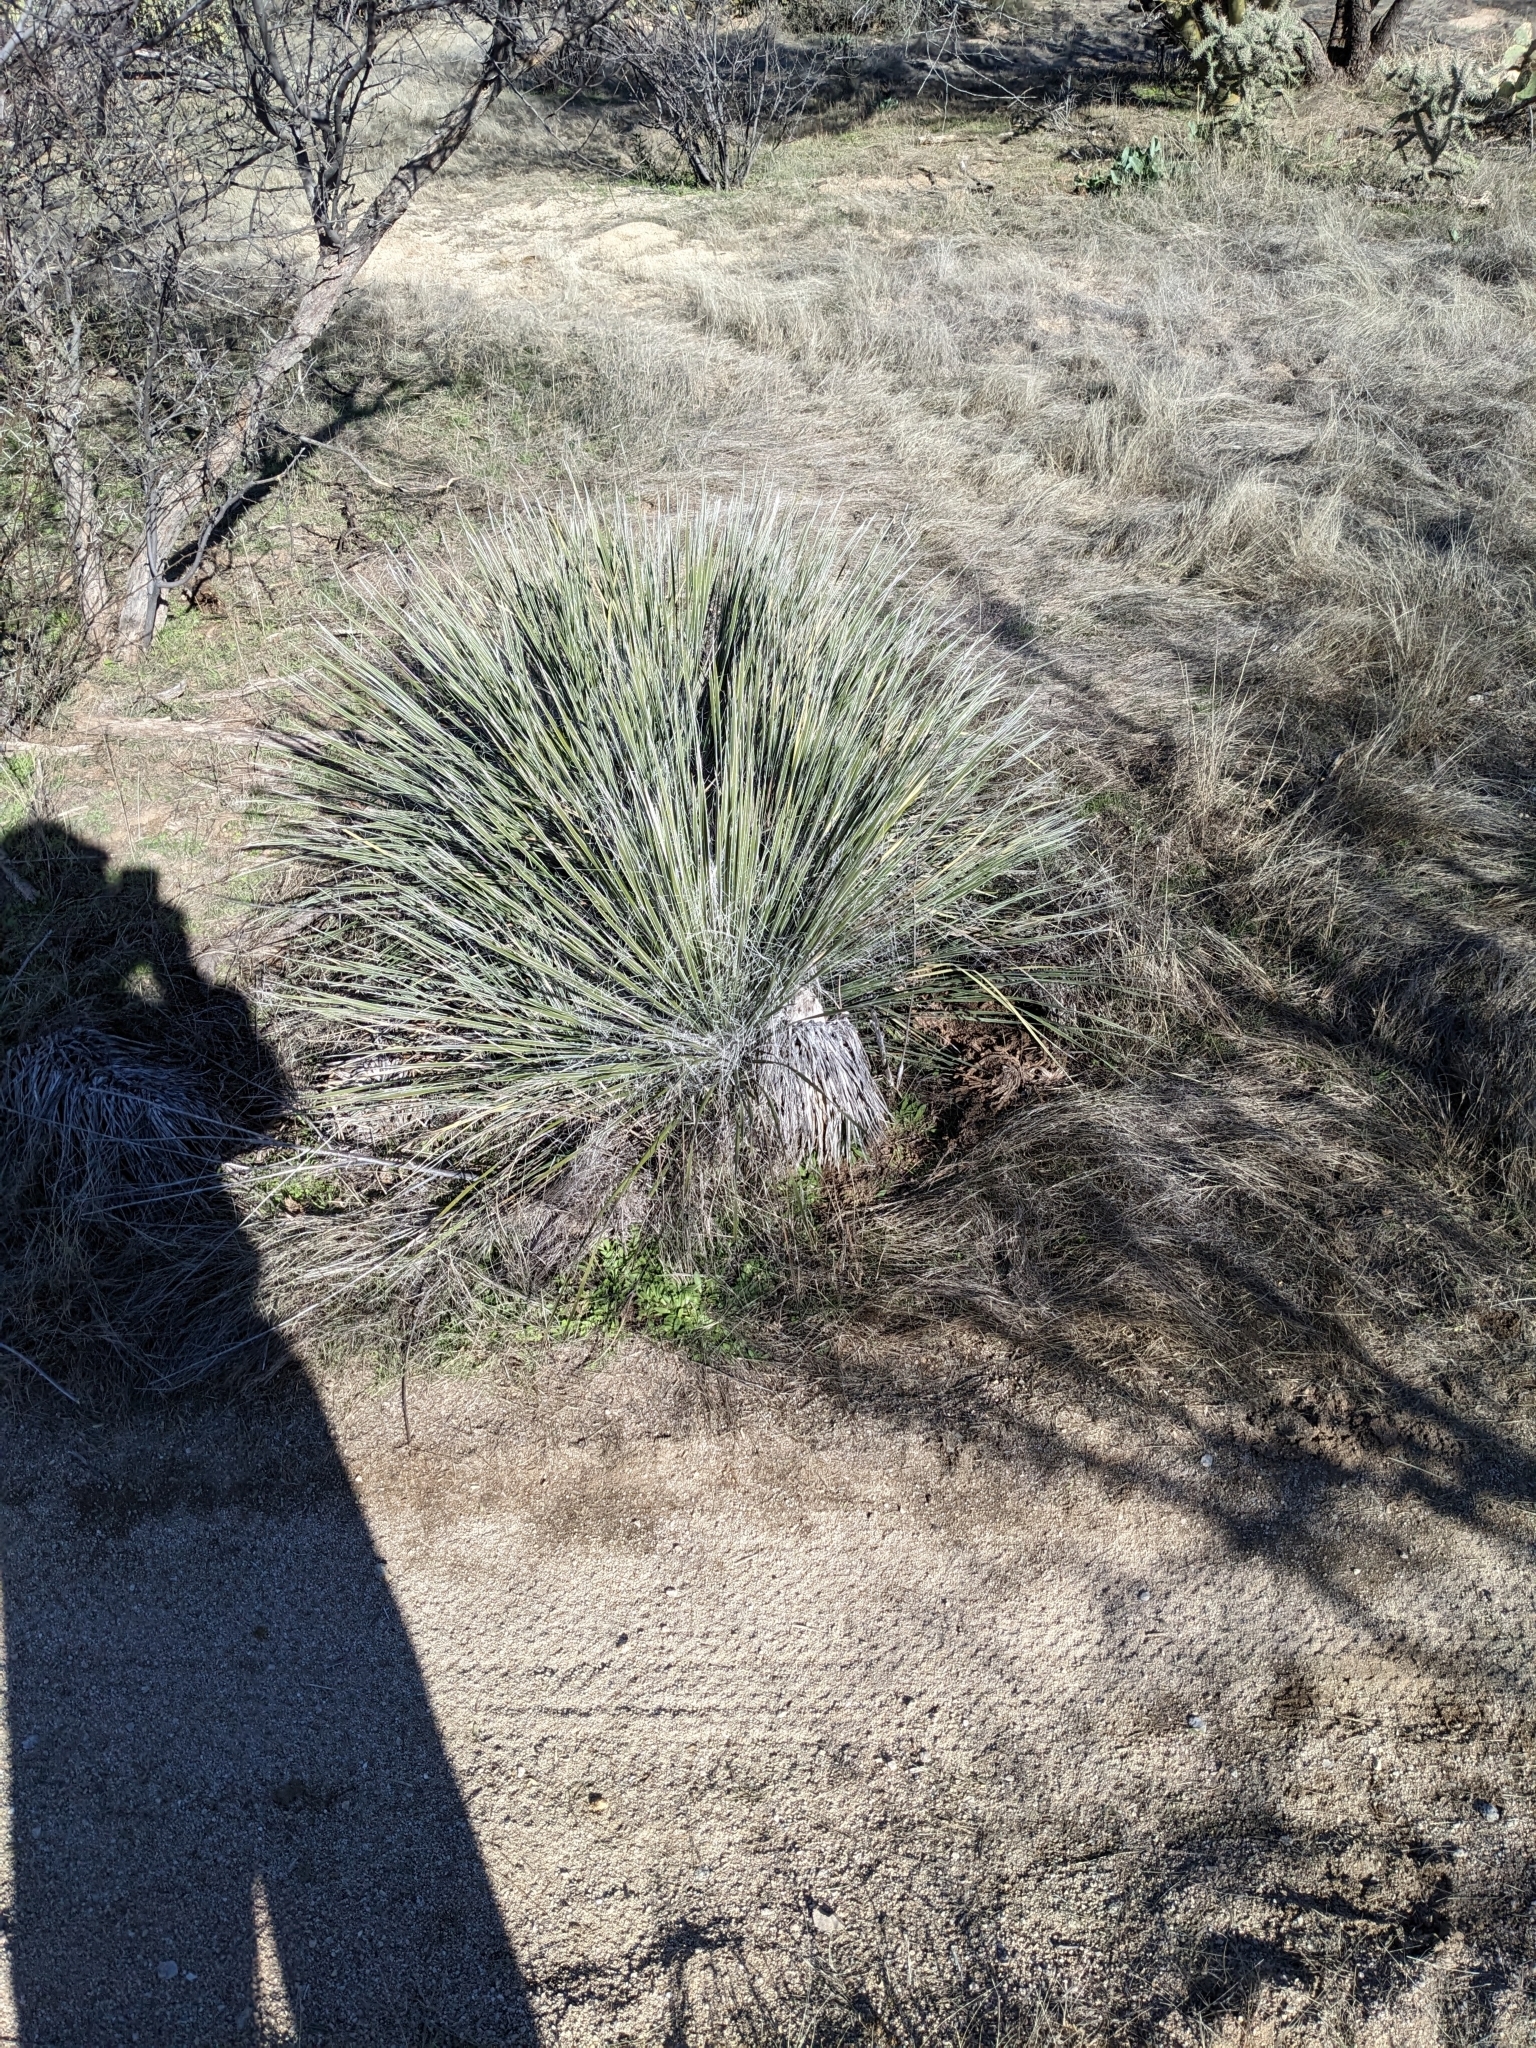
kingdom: Plantae
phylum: Tracheophyta
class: Liliopsida
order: Asparagales
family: Asparagaceae
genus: Dasylirion
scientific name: Dasylirion wheeleri
